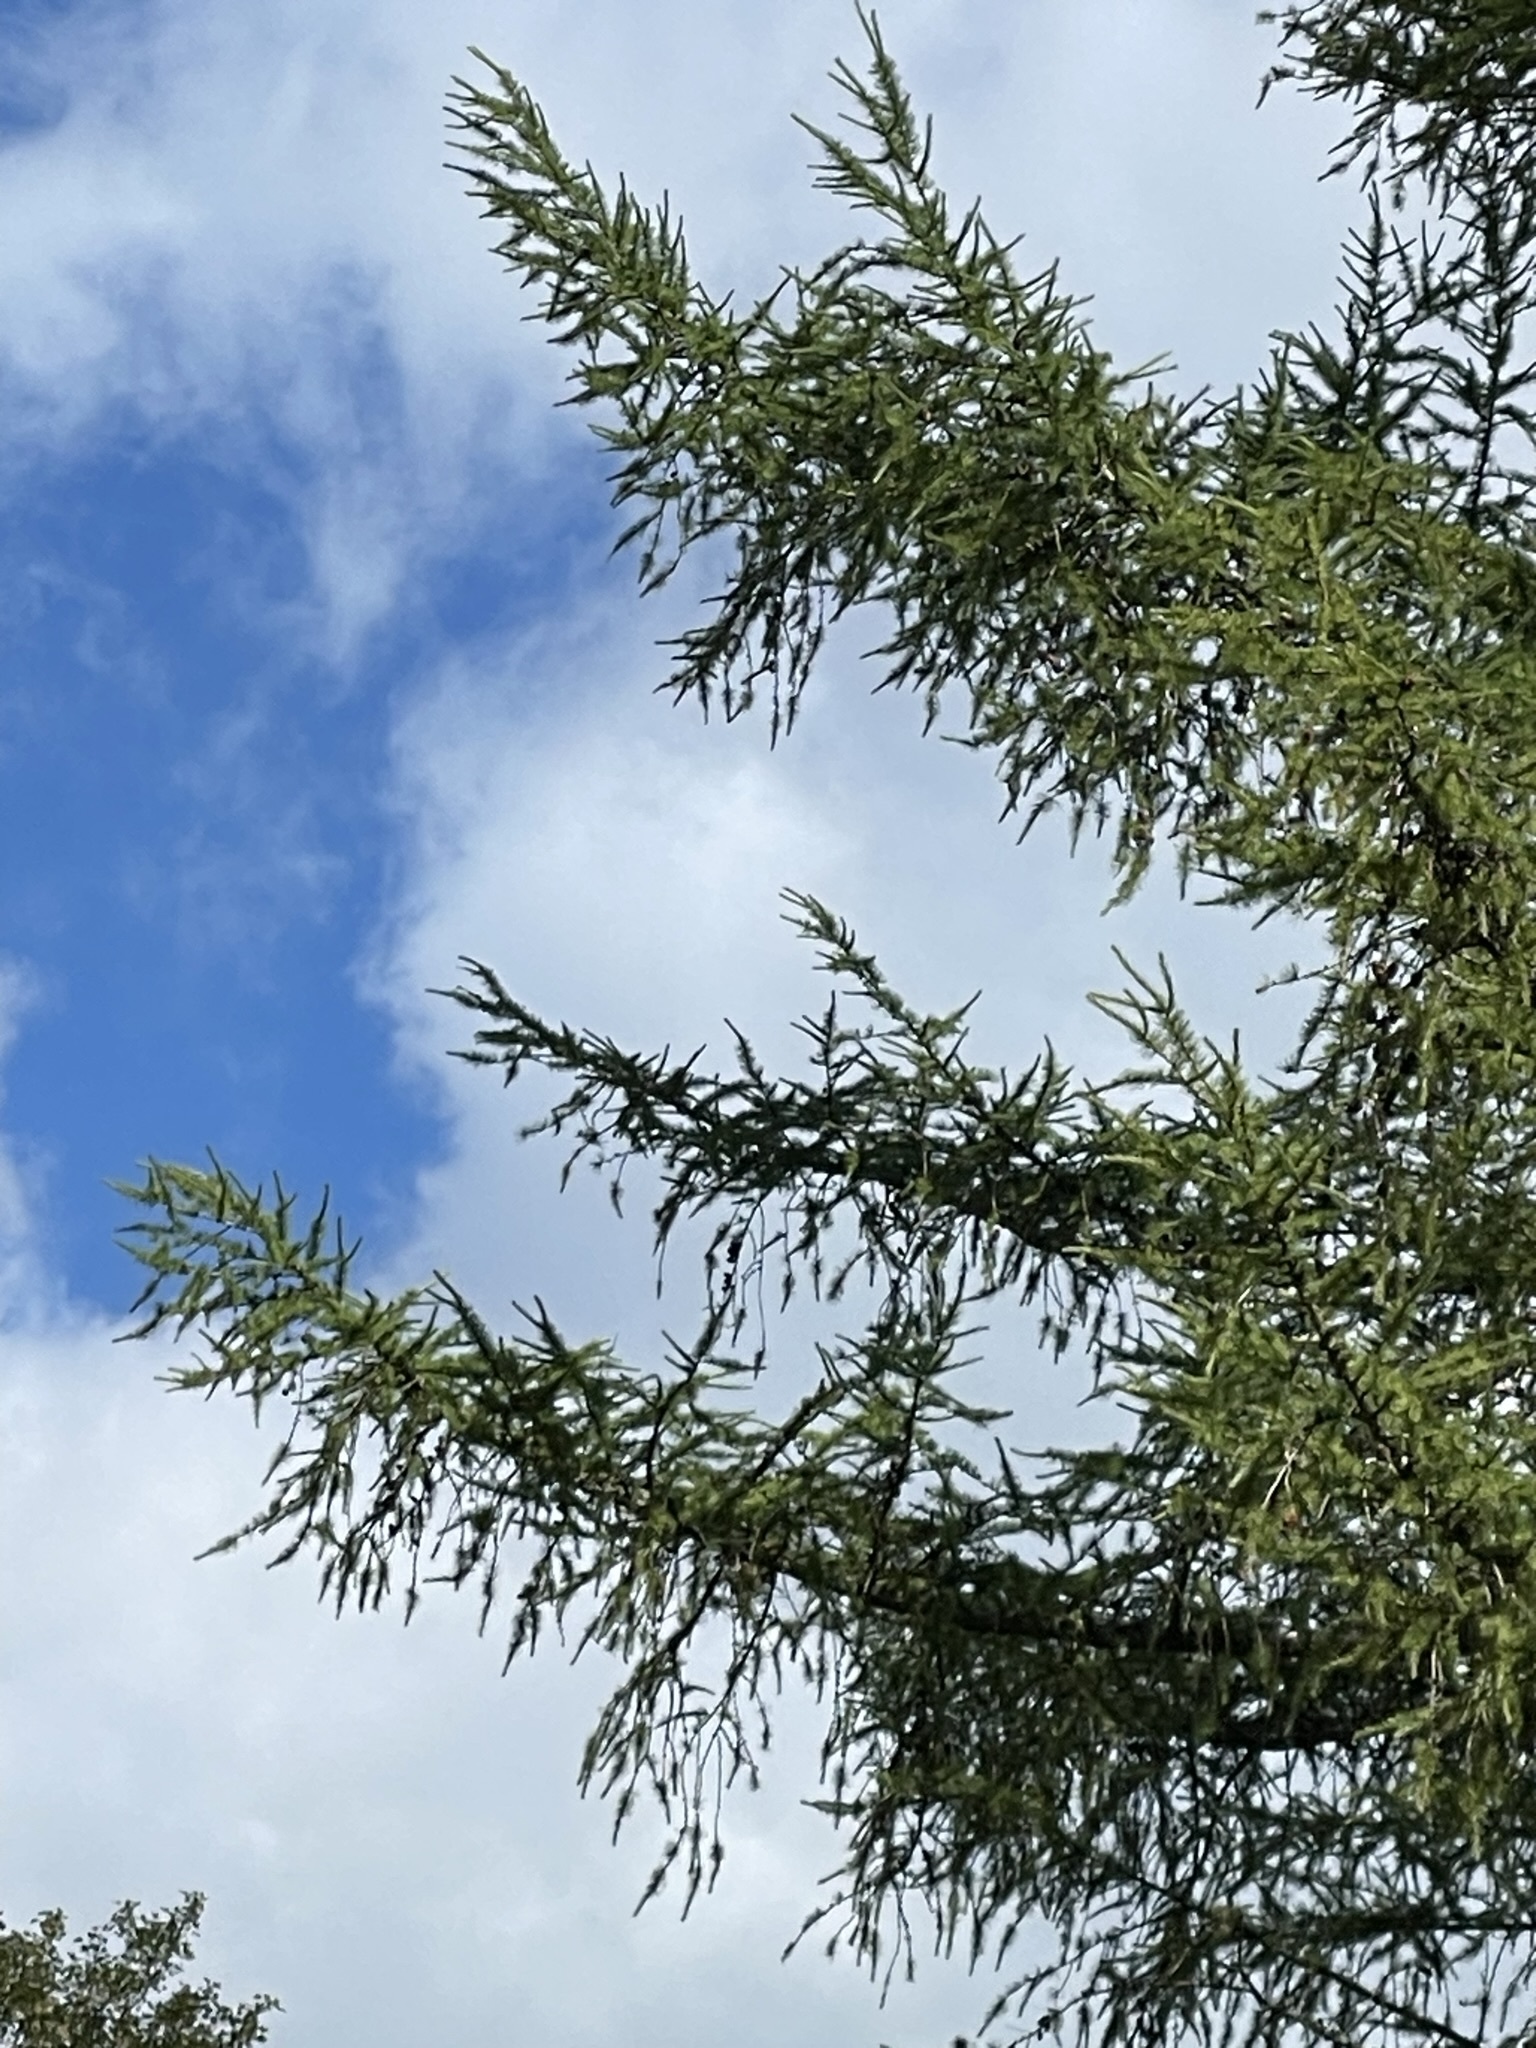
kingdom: Plantae
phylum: Tracheophyta
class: Pinopsida
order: Pinales
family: Pinaceae
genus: Larix
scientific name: Larix decidua
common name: European larch
